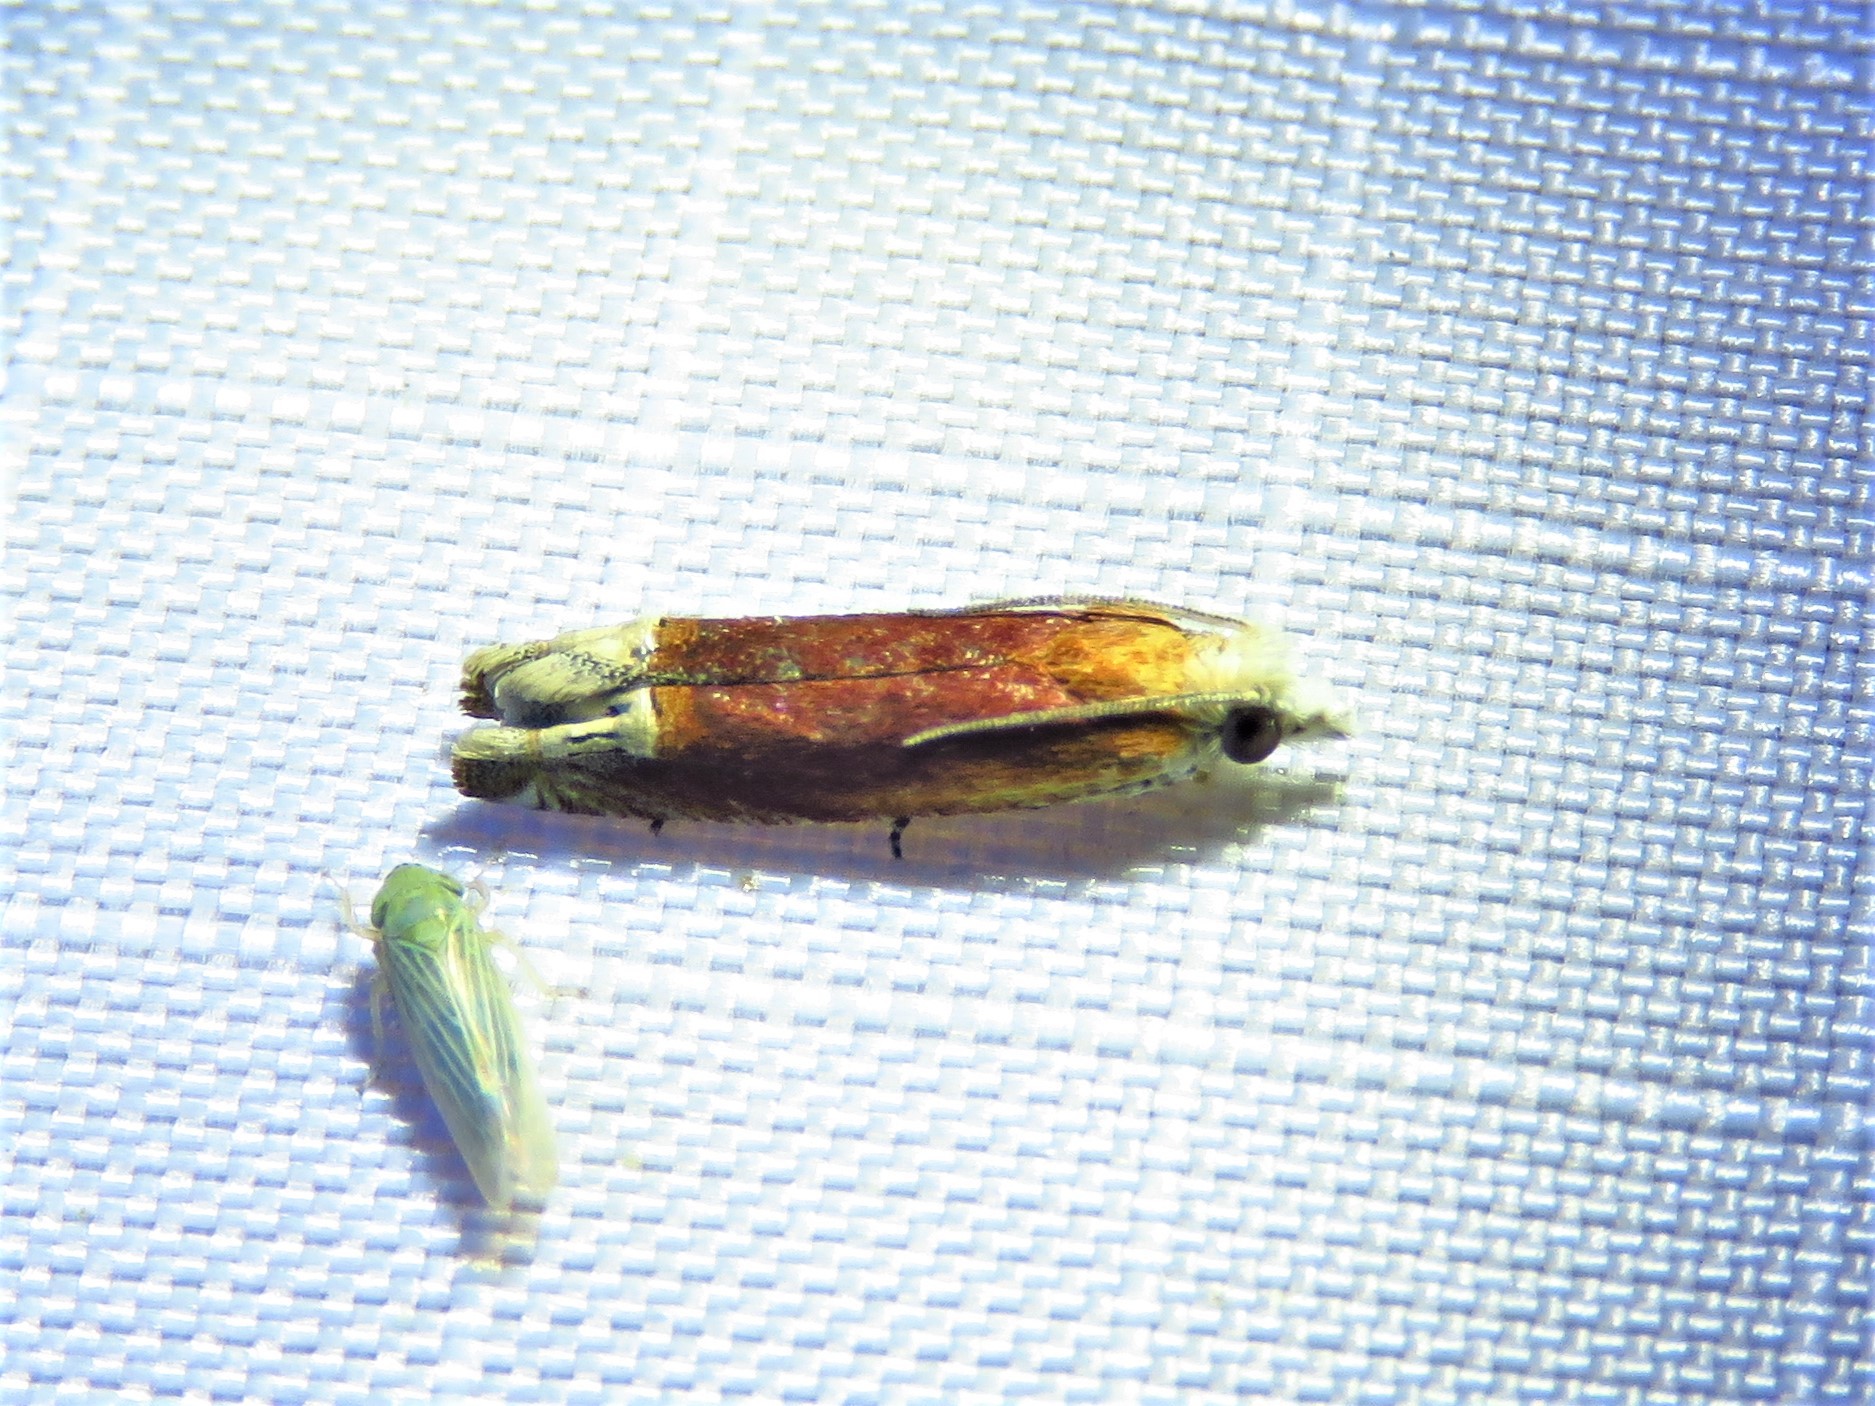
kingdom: Animalia
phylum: Arthropoda
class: Insecta
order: Lepidoptera
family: Tortricidae
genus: Eucosma
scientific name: Eucosma raracana
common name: Reddish eucosma moth
